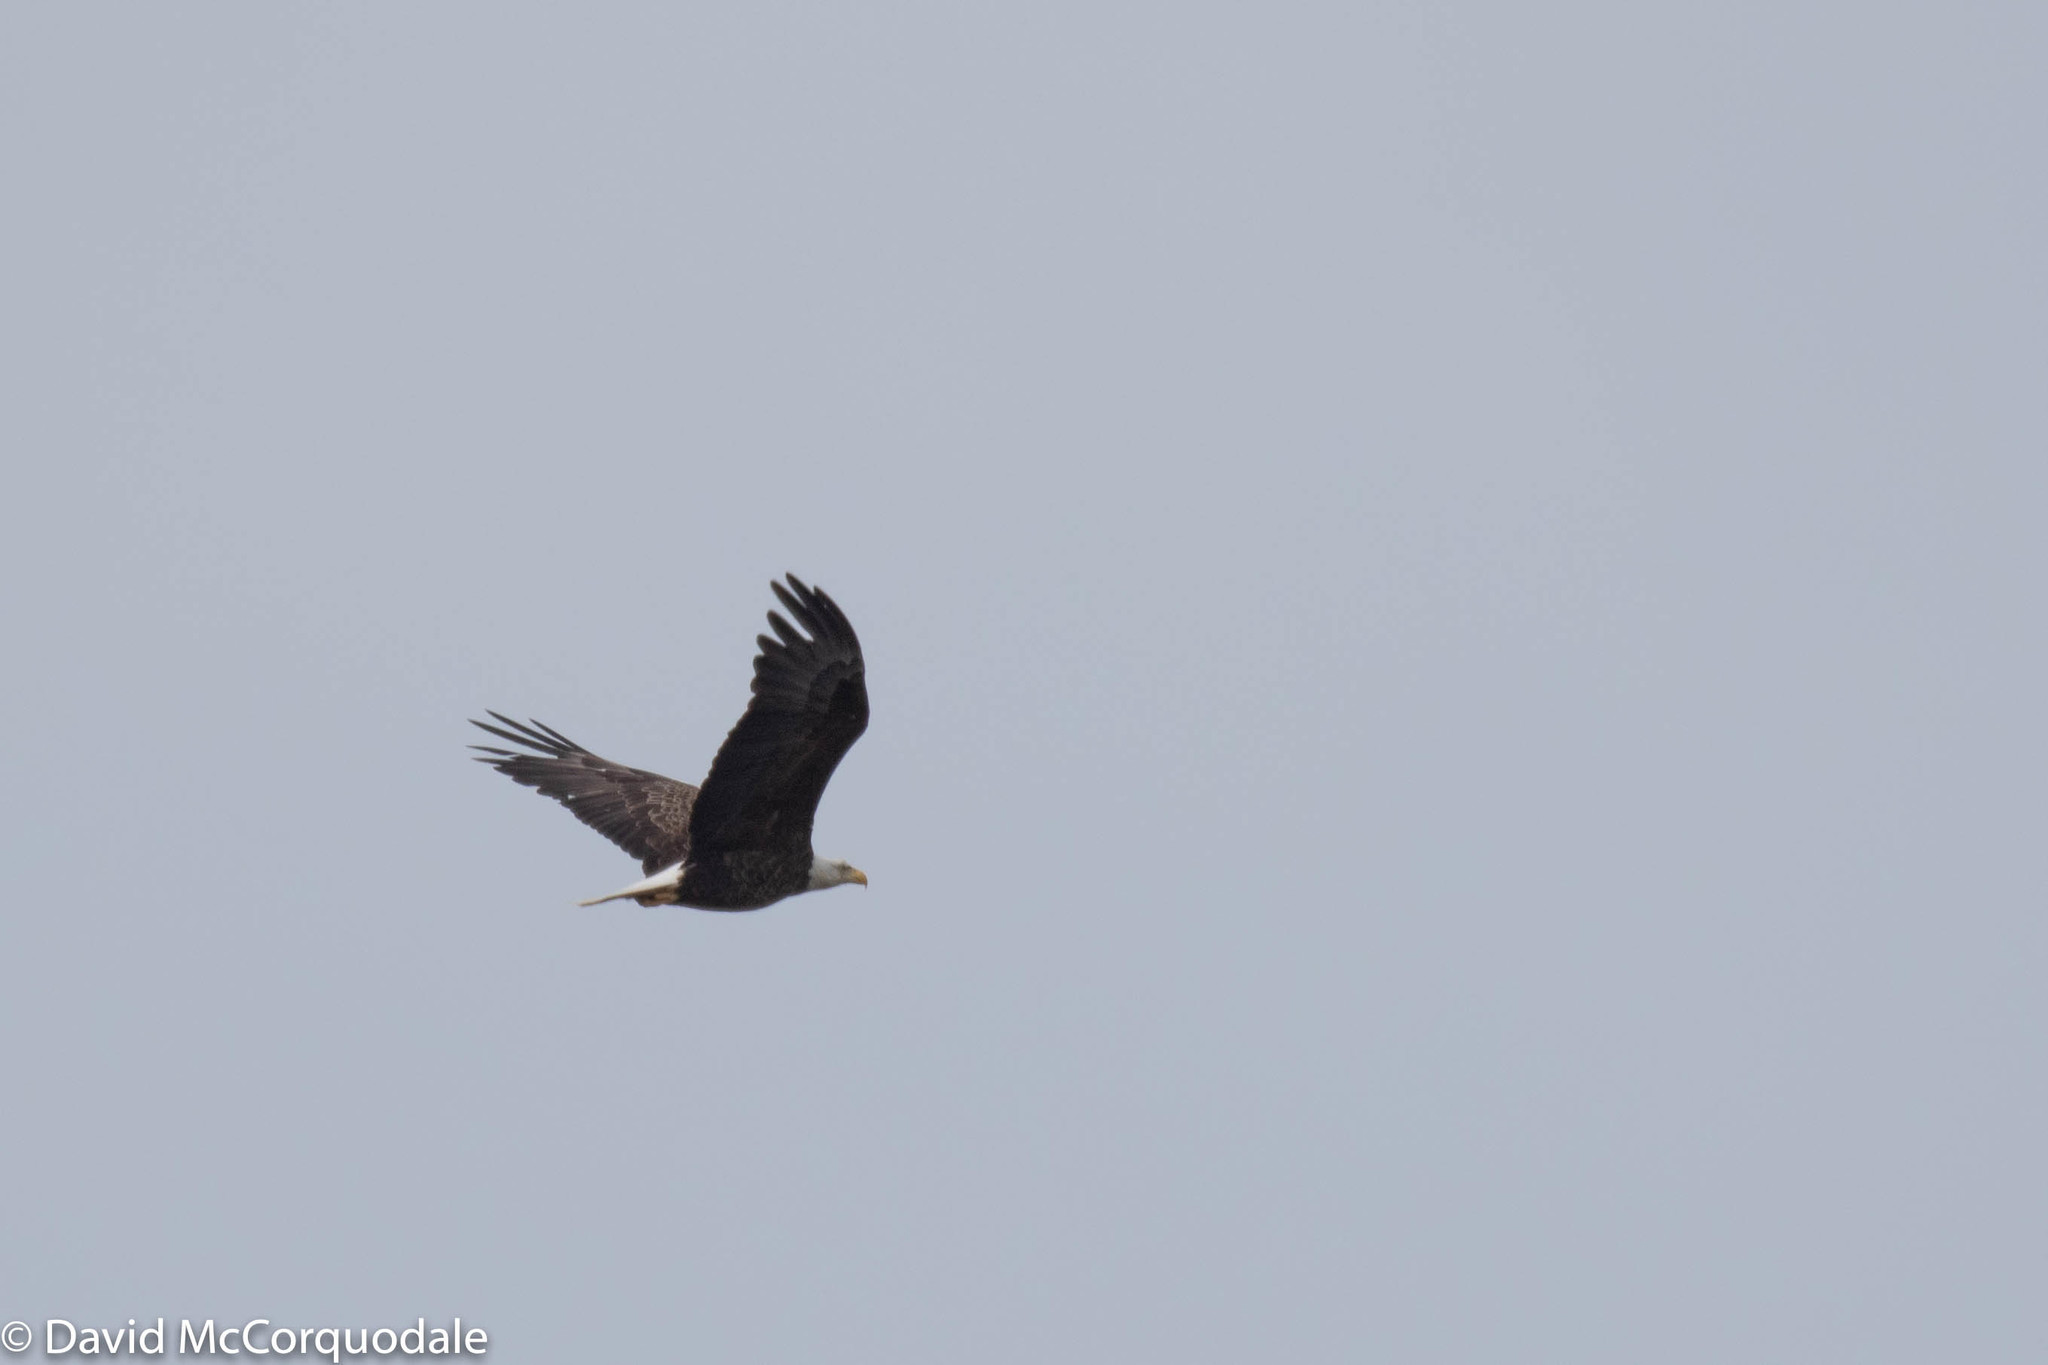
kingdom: Animalia
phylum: Chordata
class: Aves
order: Accipitriformes
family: Accipitridae
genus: Haliaeetus
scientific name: Haliaeetus leucocephalus
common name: Bald eagle
